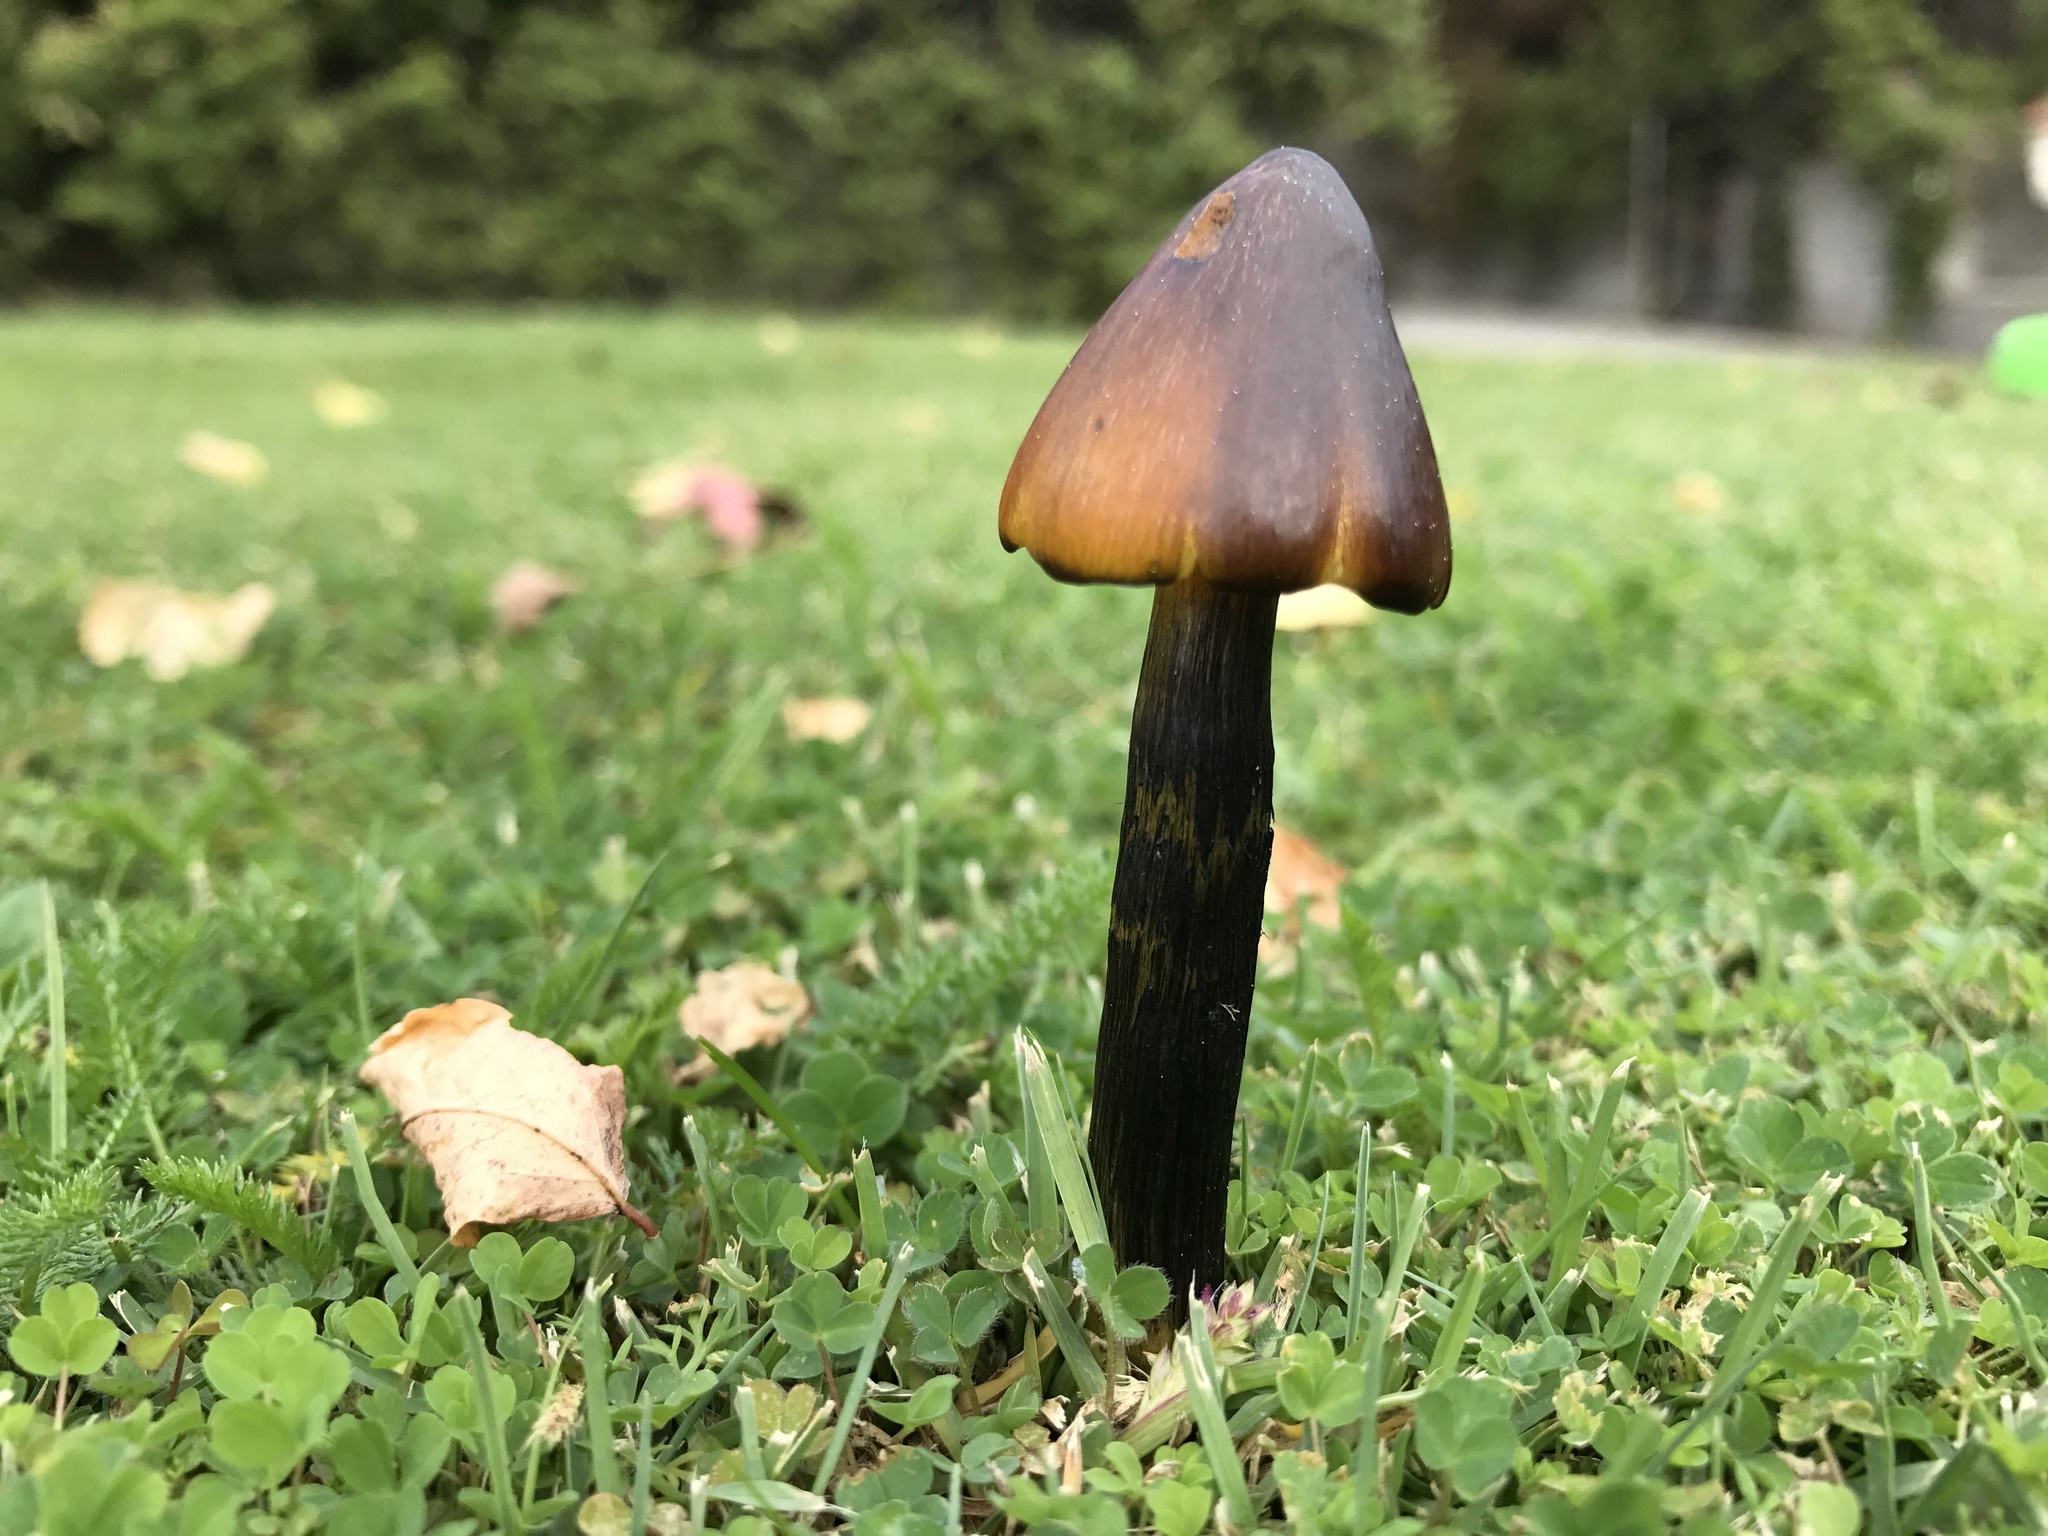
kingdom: Fungi
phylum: Basidiomycota
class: Agaricomycetes
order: Agaricales
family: Hygrophoraceae
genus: Hygrocybe
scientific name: Hygrocybe conica
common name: Blackening wax-cap
